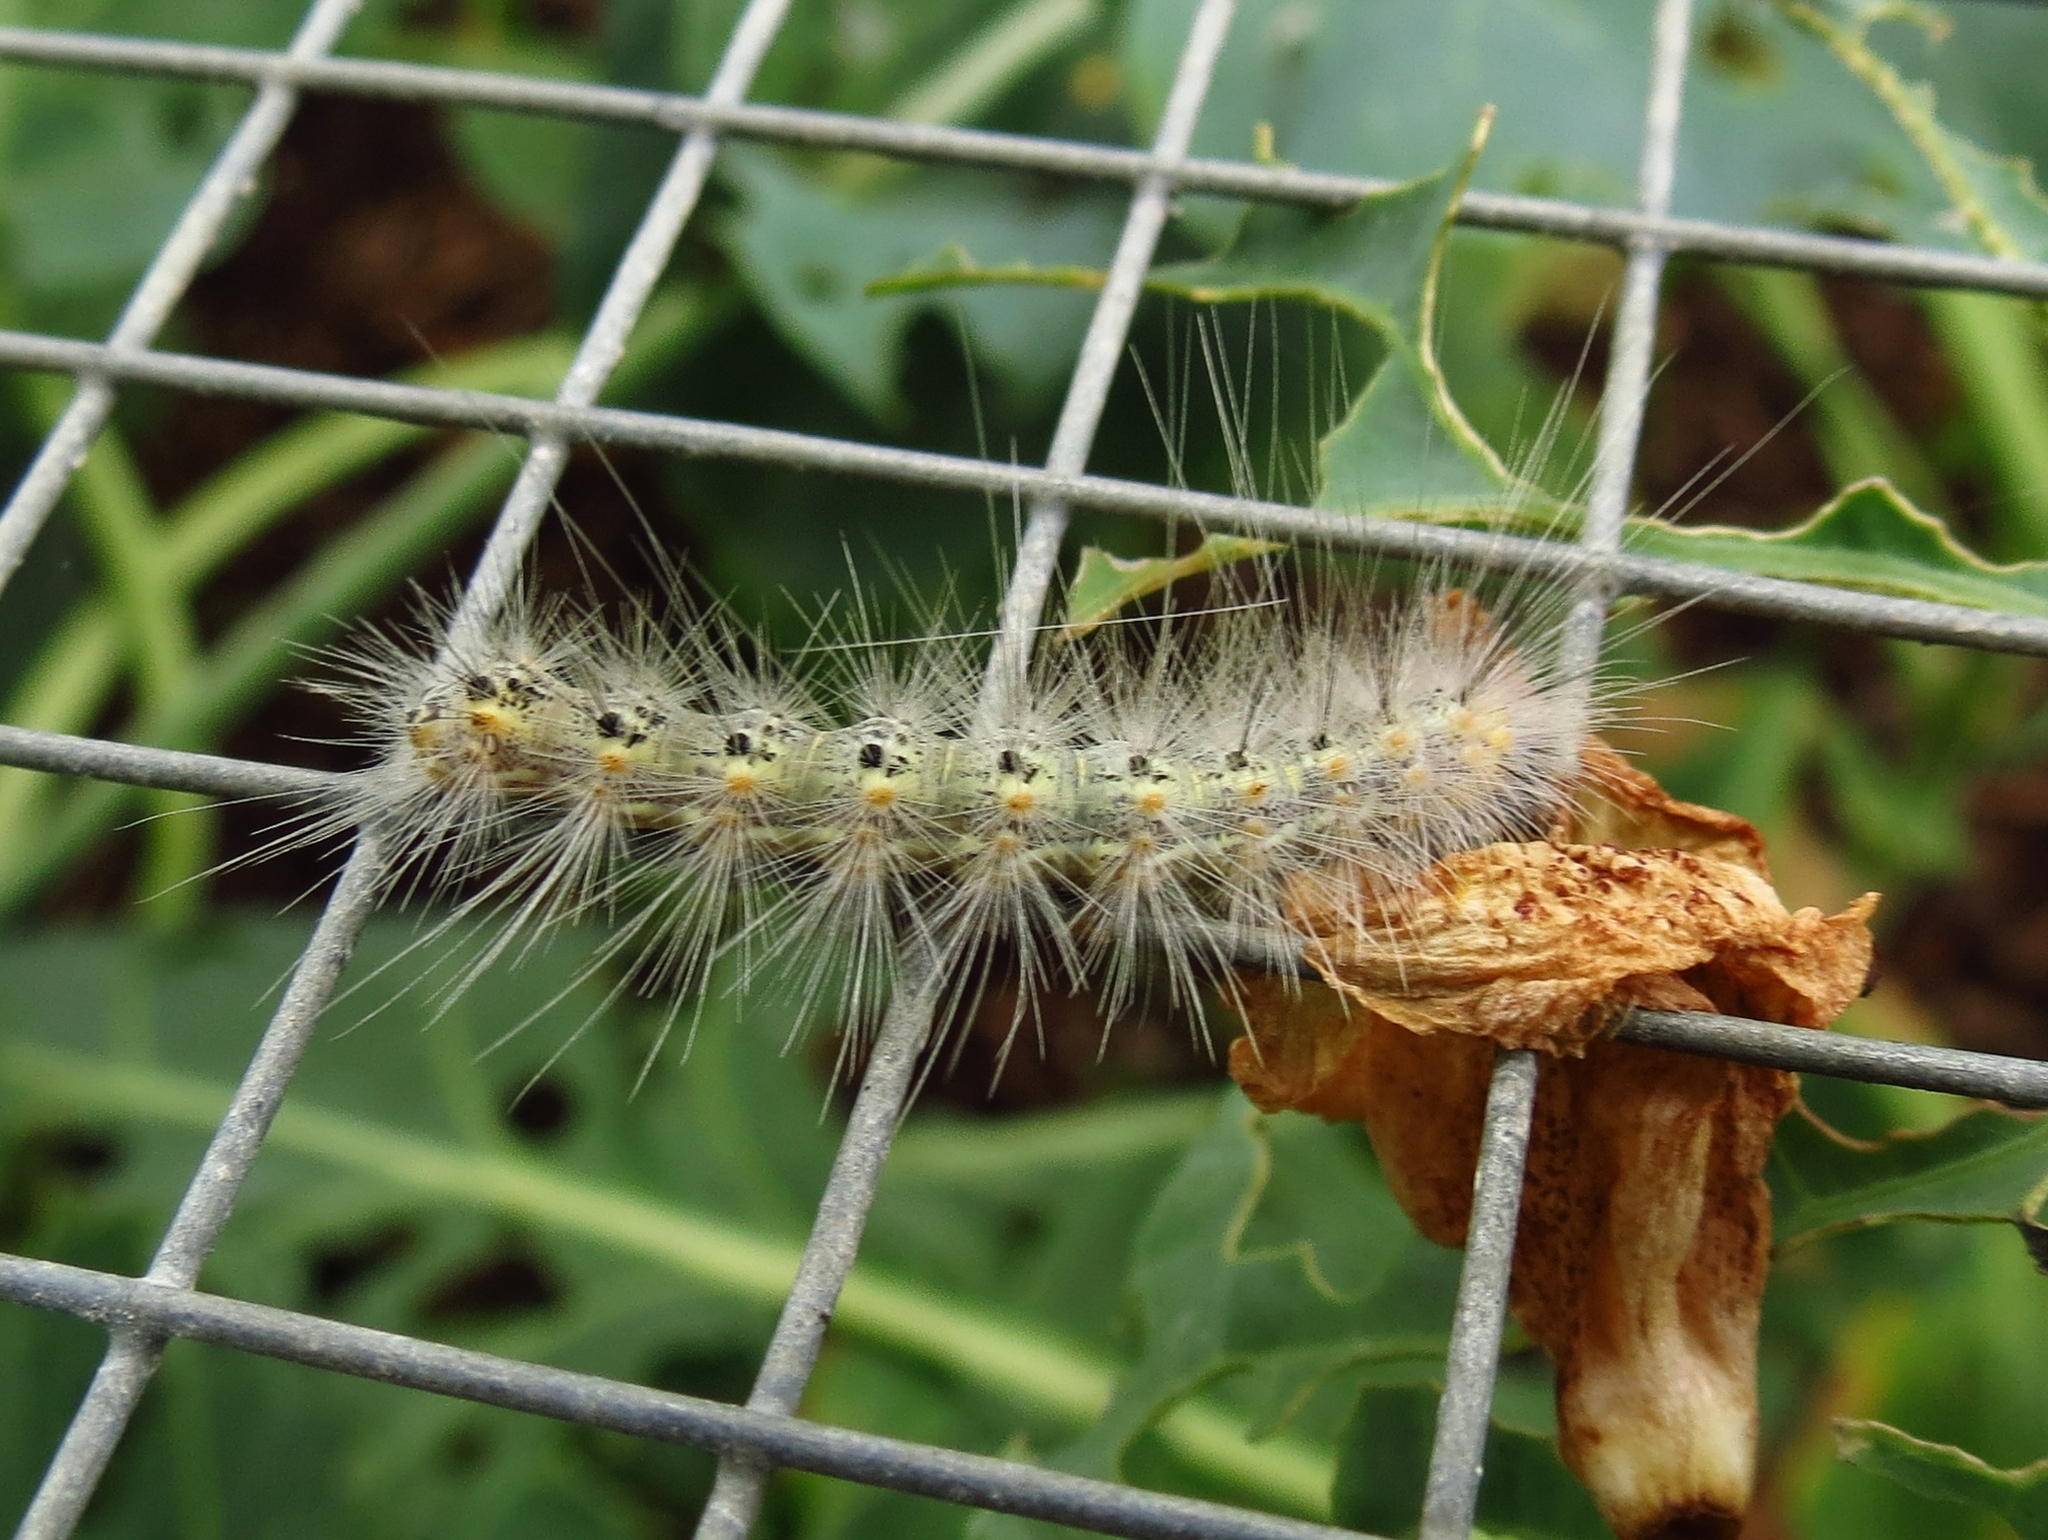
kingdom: Animalia
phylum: Arthropoda
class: Insecta
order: Lepidoptera
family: Erebidae
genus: Hyphantria
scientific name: Hyphantria cunea
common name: American white moth
